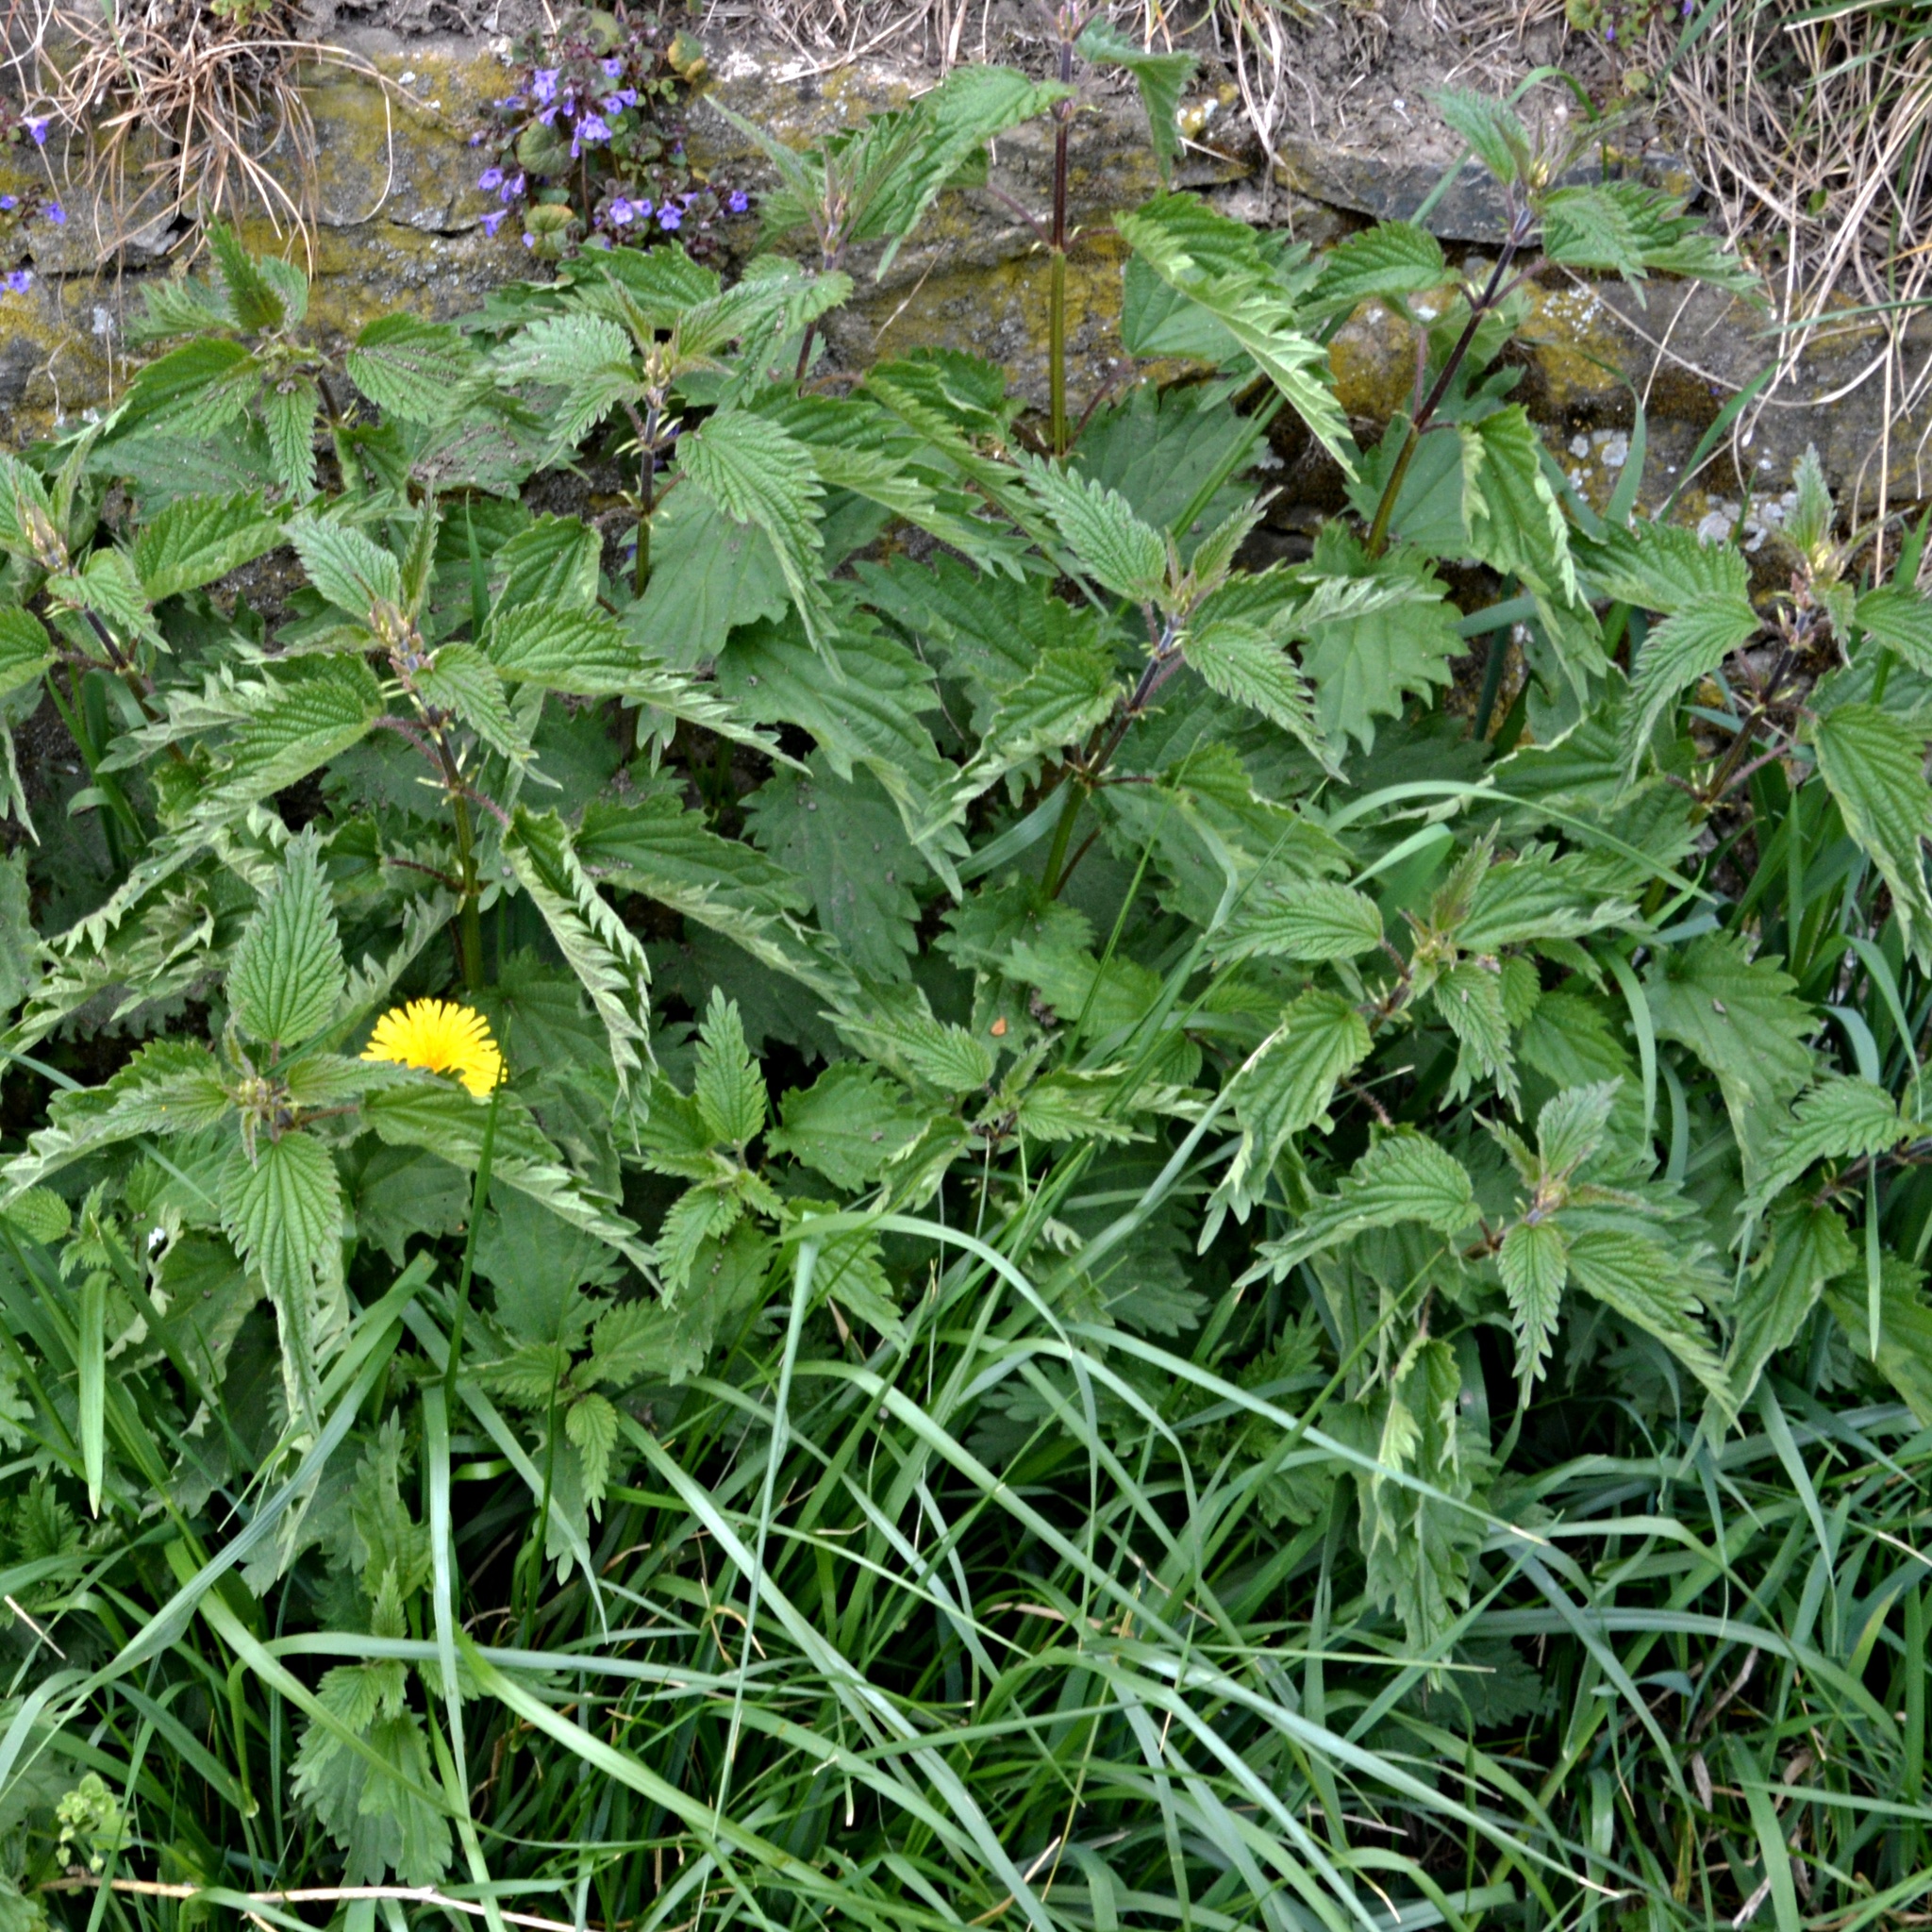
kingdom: Plantae
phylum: Tracheophyta
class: Magnoliopsida
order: Rosales
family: Urticaceae
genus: Urtica
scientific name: Urtica dioica
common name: Common nettle
